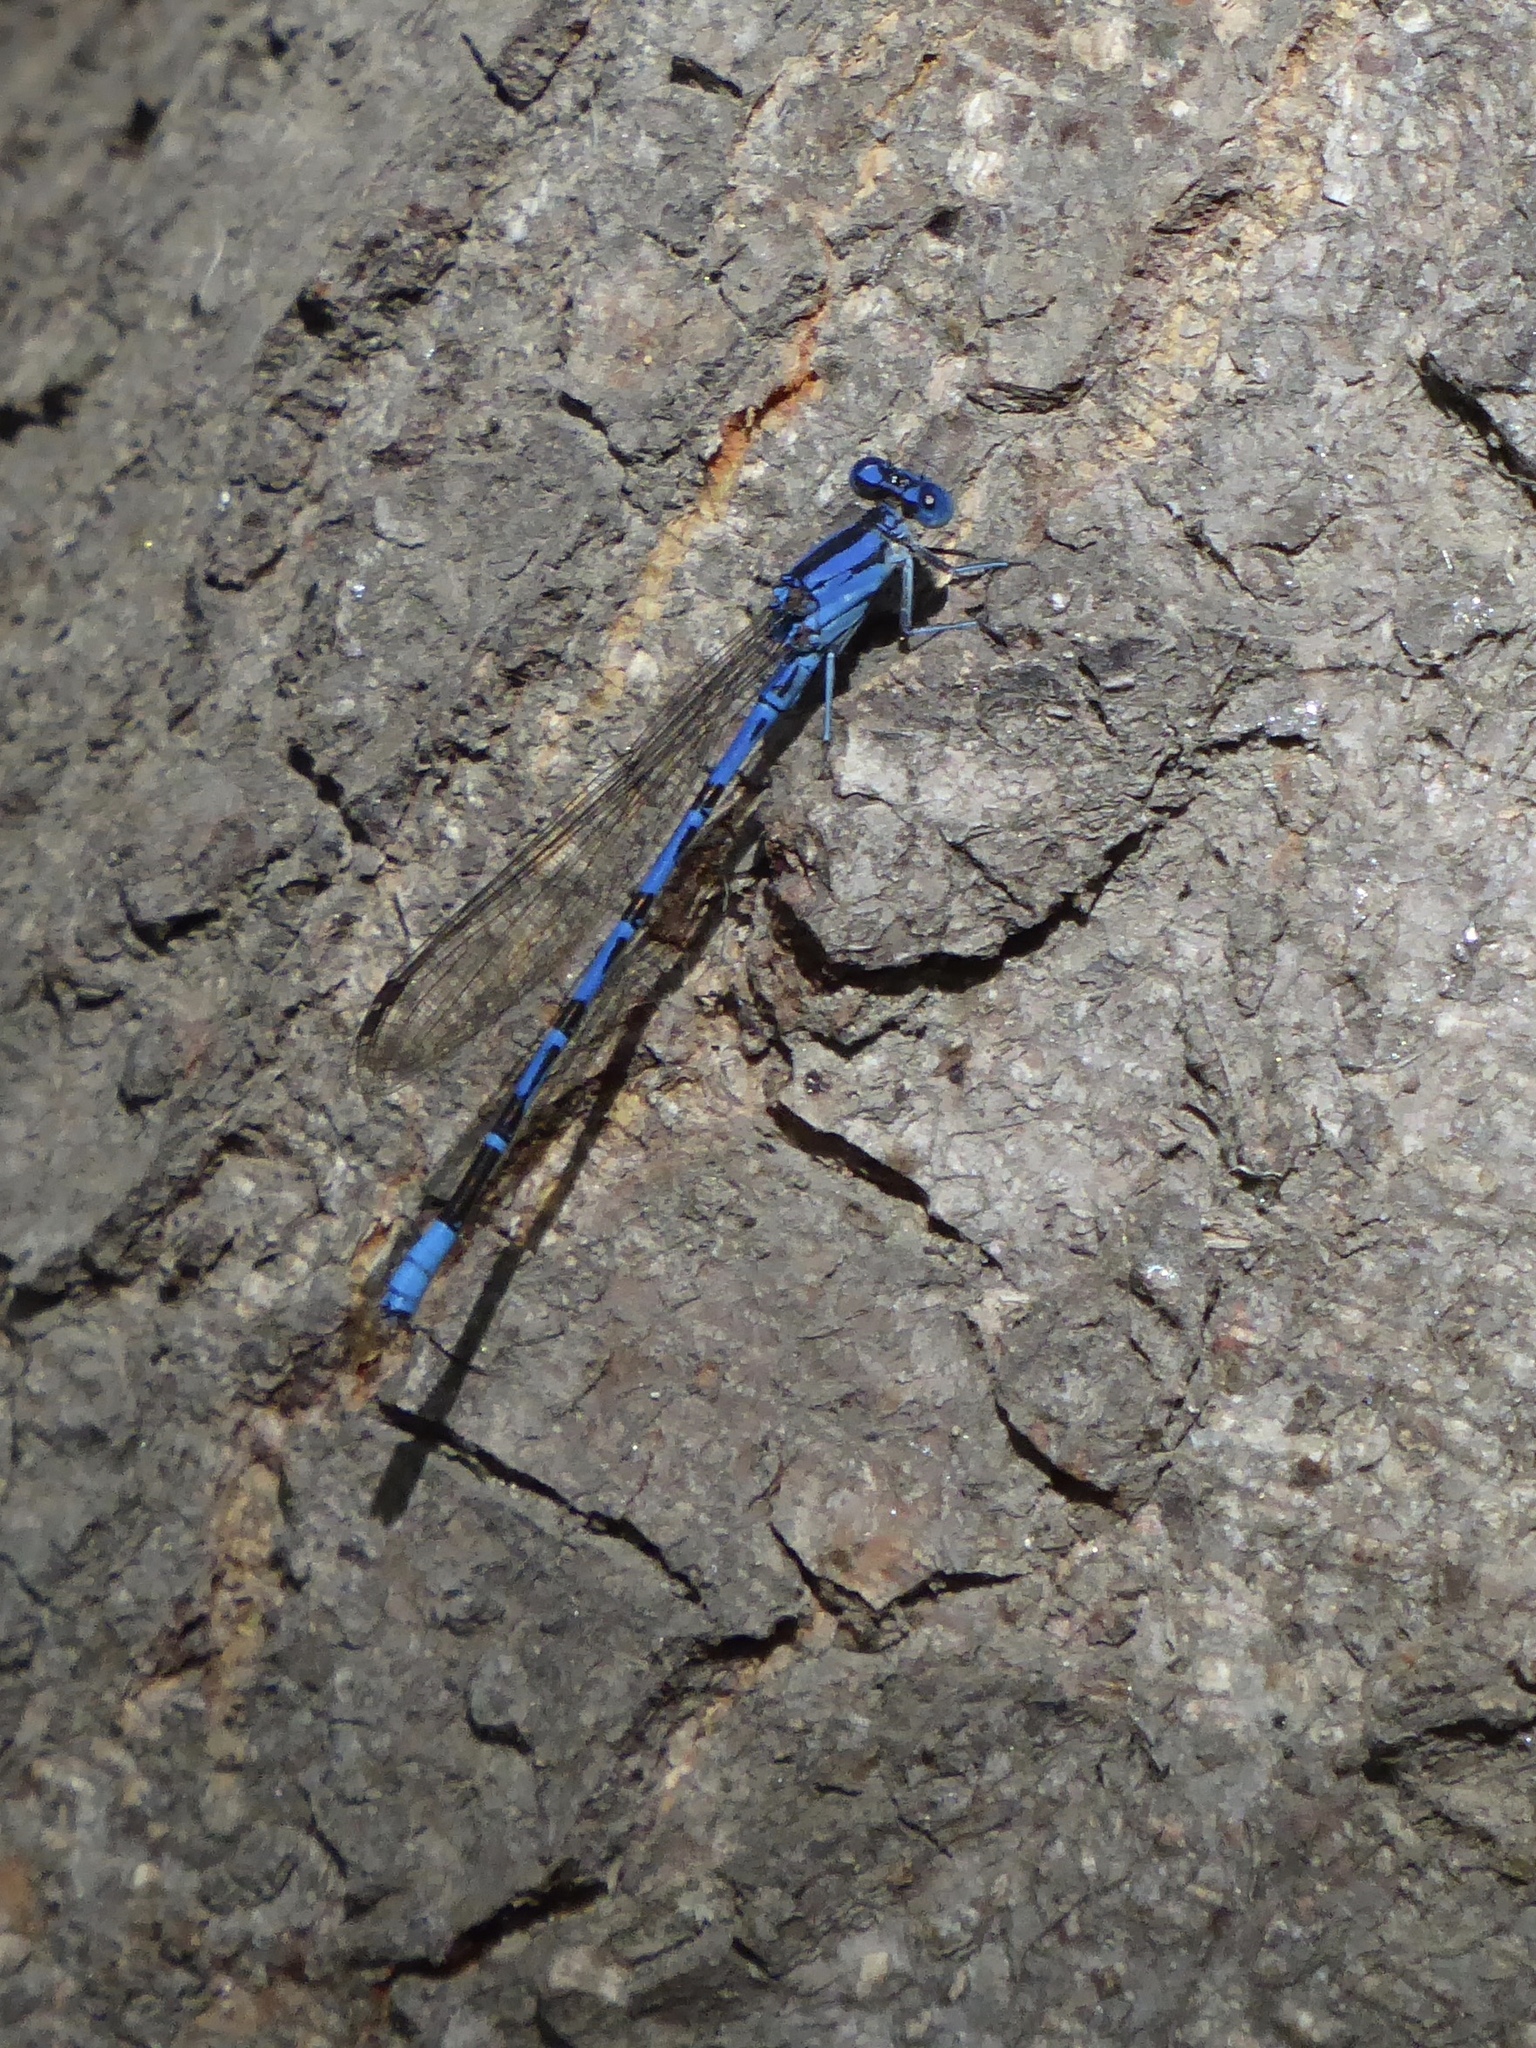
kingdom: Animalia
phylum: Arthropoda
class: Insecta
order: Odonata
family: Coenagrionidae
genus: Argia
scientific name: Argia vivida
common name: Vivid dancer
